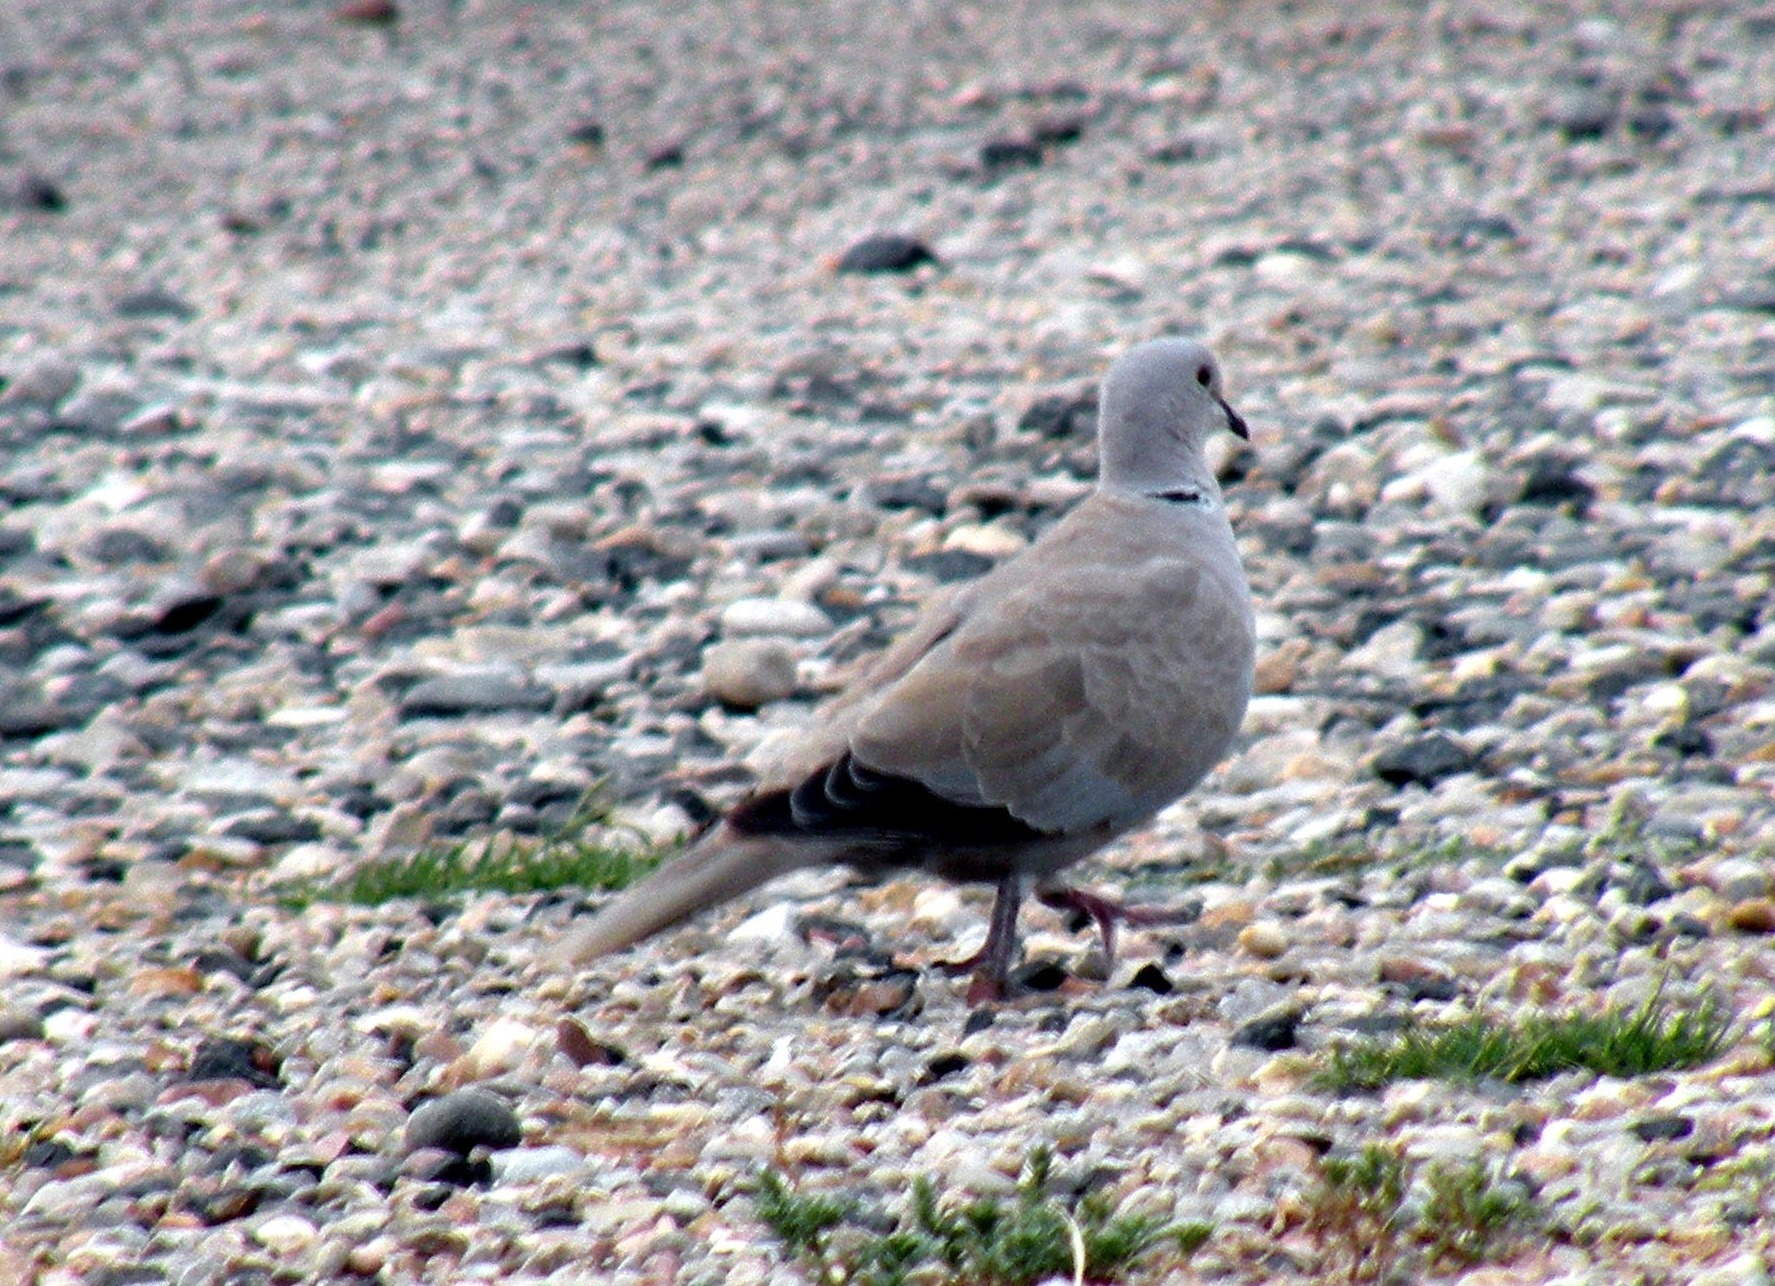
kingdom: Animalia
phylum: Chordata
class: Aves
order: Columbiformes
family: Columbidae
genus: Streptopelia
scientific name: Streptopelia decaocto
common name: Eurasian collared dove
